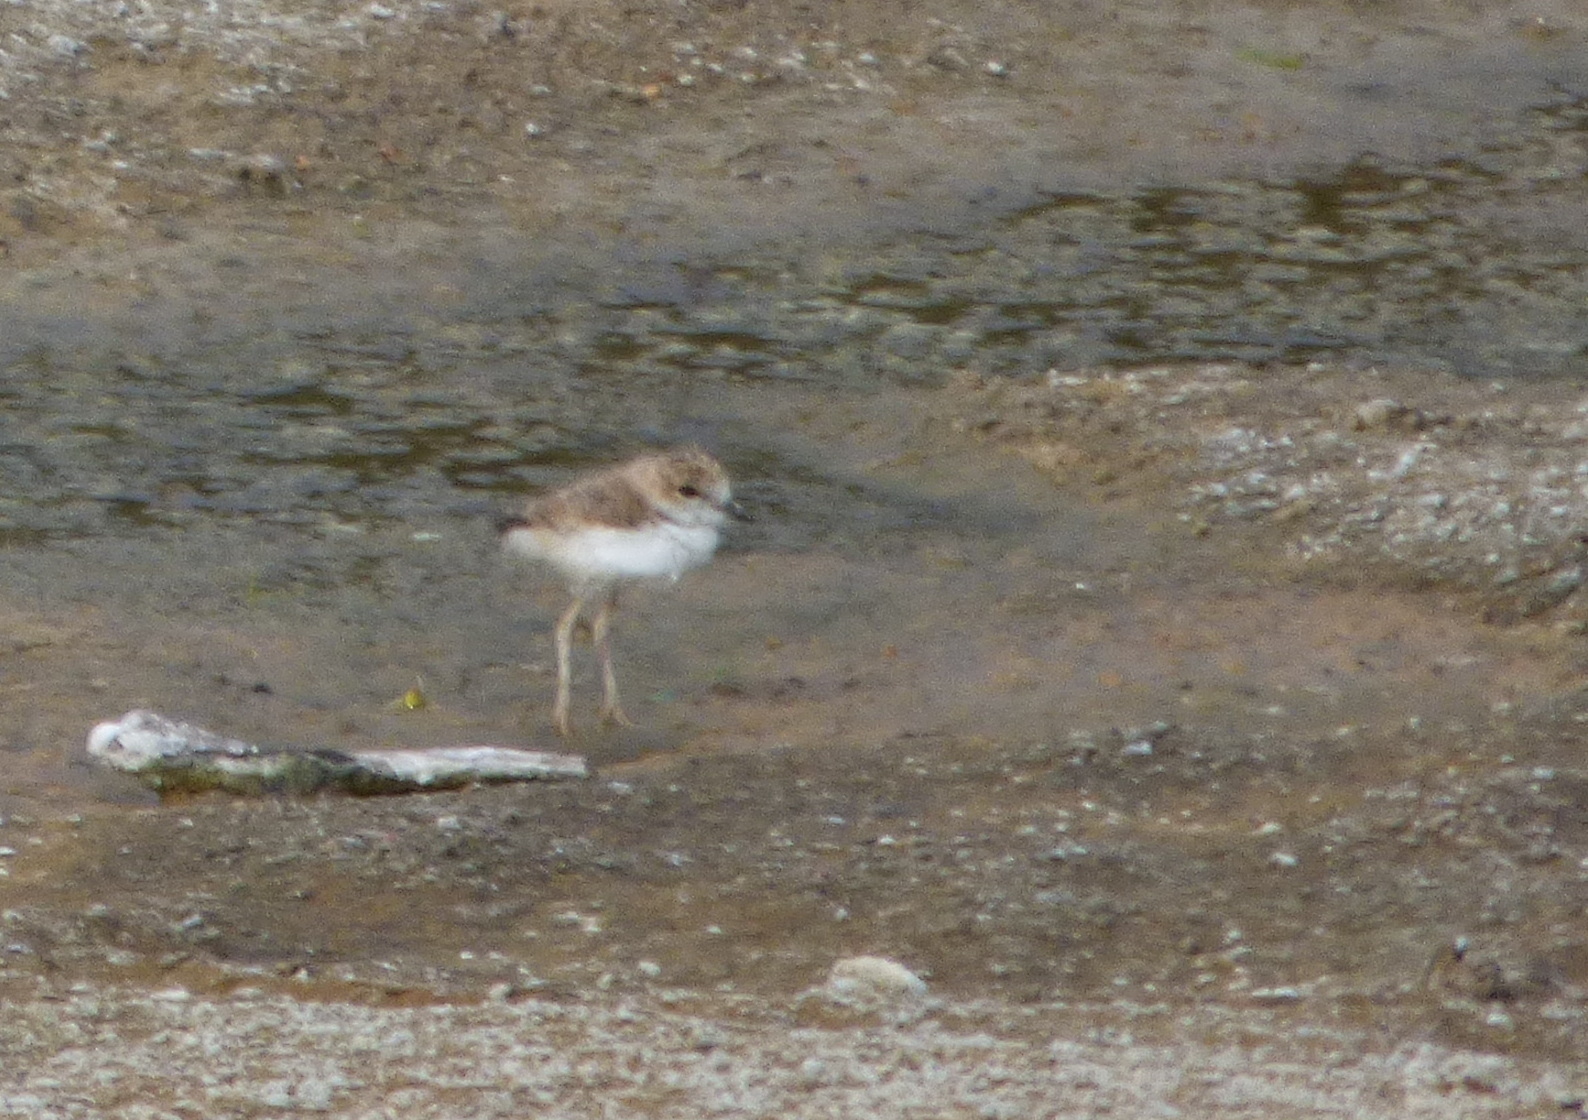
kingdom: Animalia
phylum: Chordata
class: Aves
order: Charadriiformes
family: Charadriidae
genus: Anarhynchus
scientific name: Anarhynchus
